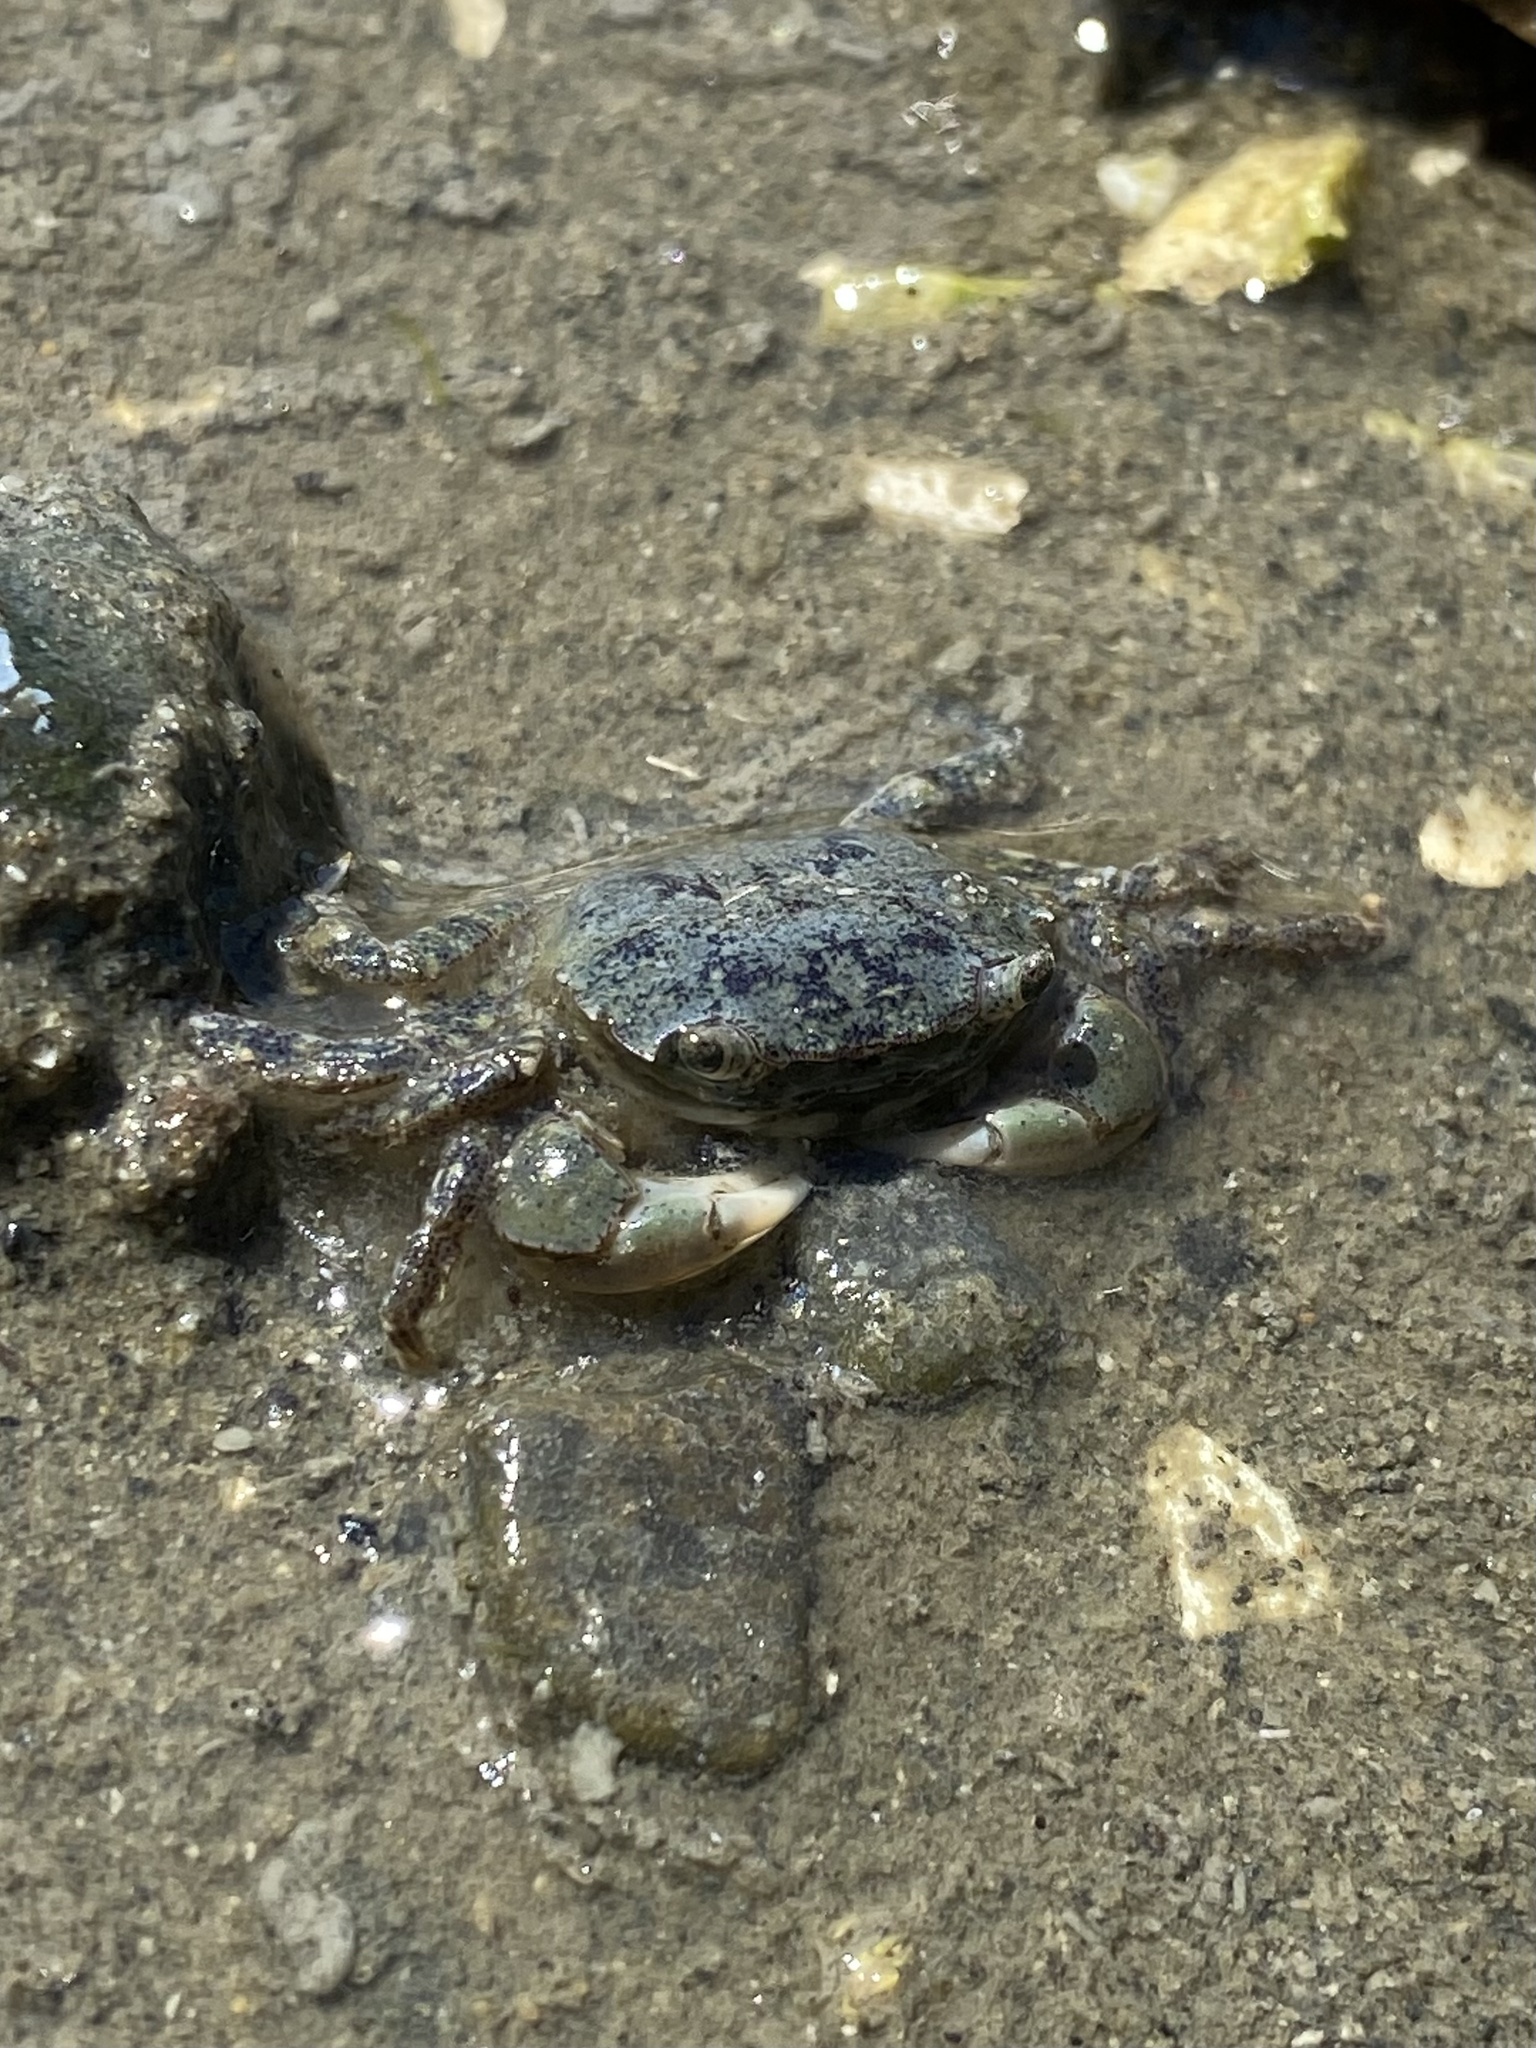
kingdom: Animalia
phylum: Arthropoda
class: Malacostraca
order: Decapoda
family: Varunidae
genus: Hemigrapsus
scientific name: Hemigrapsus oregonensis
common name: Yellow shore crab
